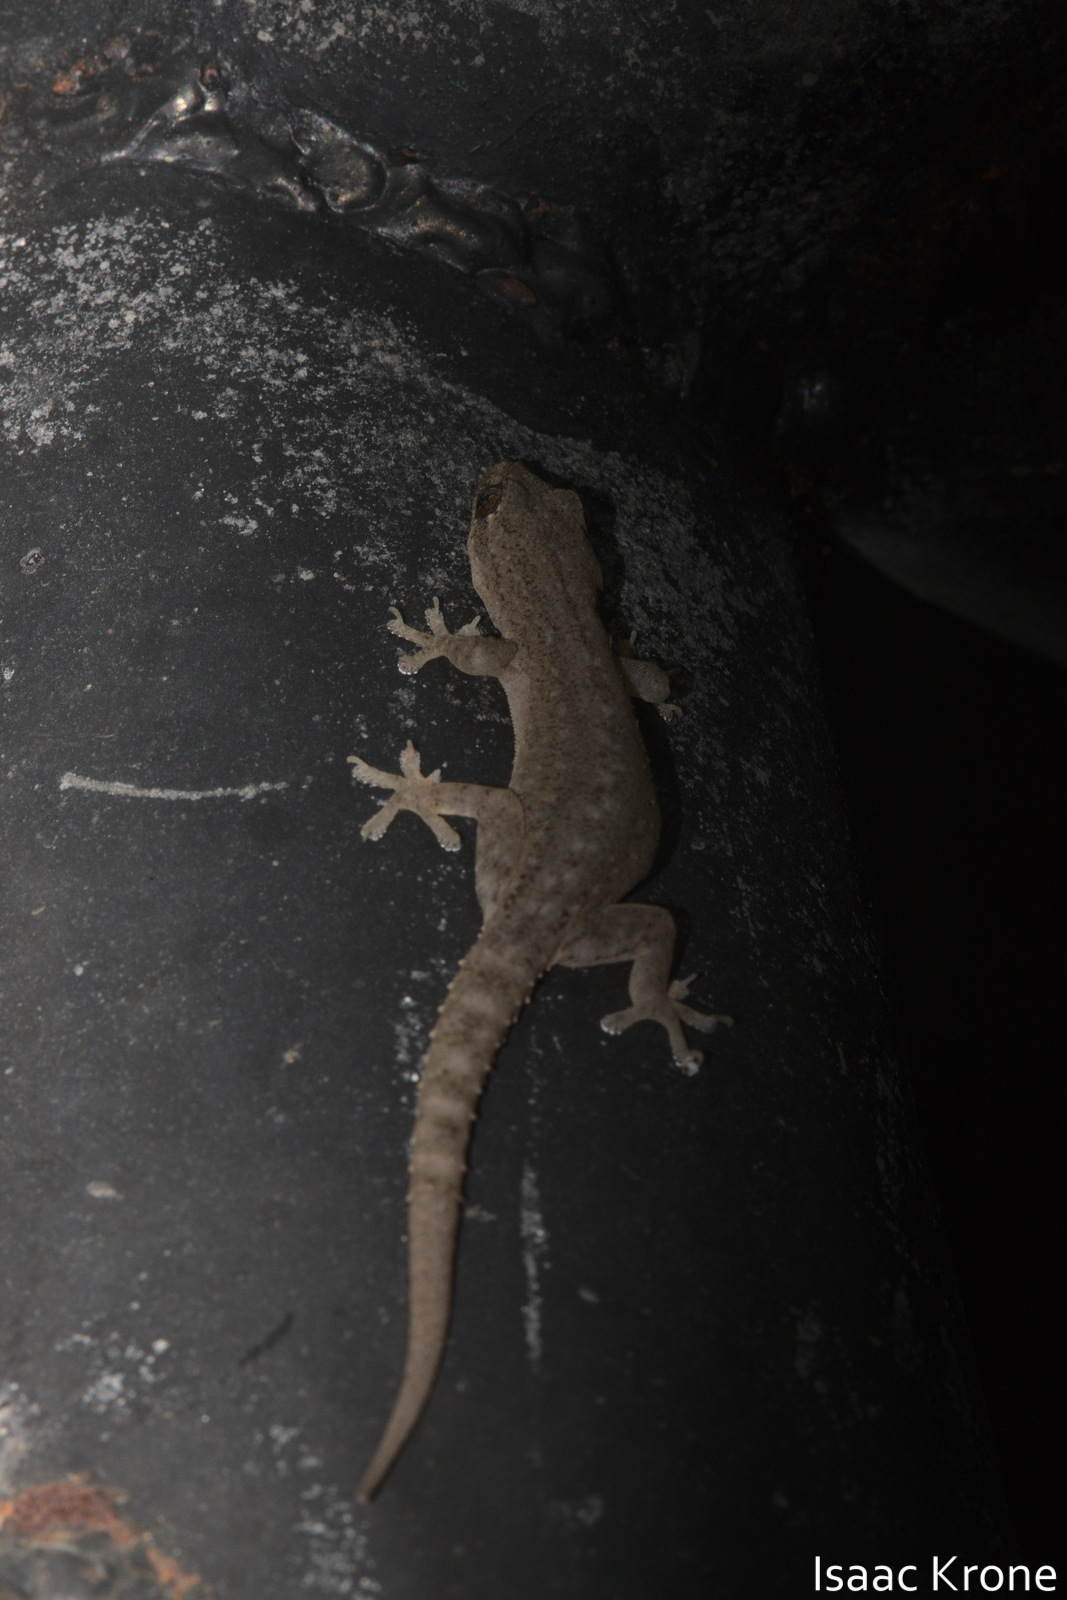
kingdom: Animalia
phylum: Chordata
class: Squamata
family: Gekkonidae
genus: Hemidactylus
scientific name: Hemidactylus frenatus
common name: Common house gecko
